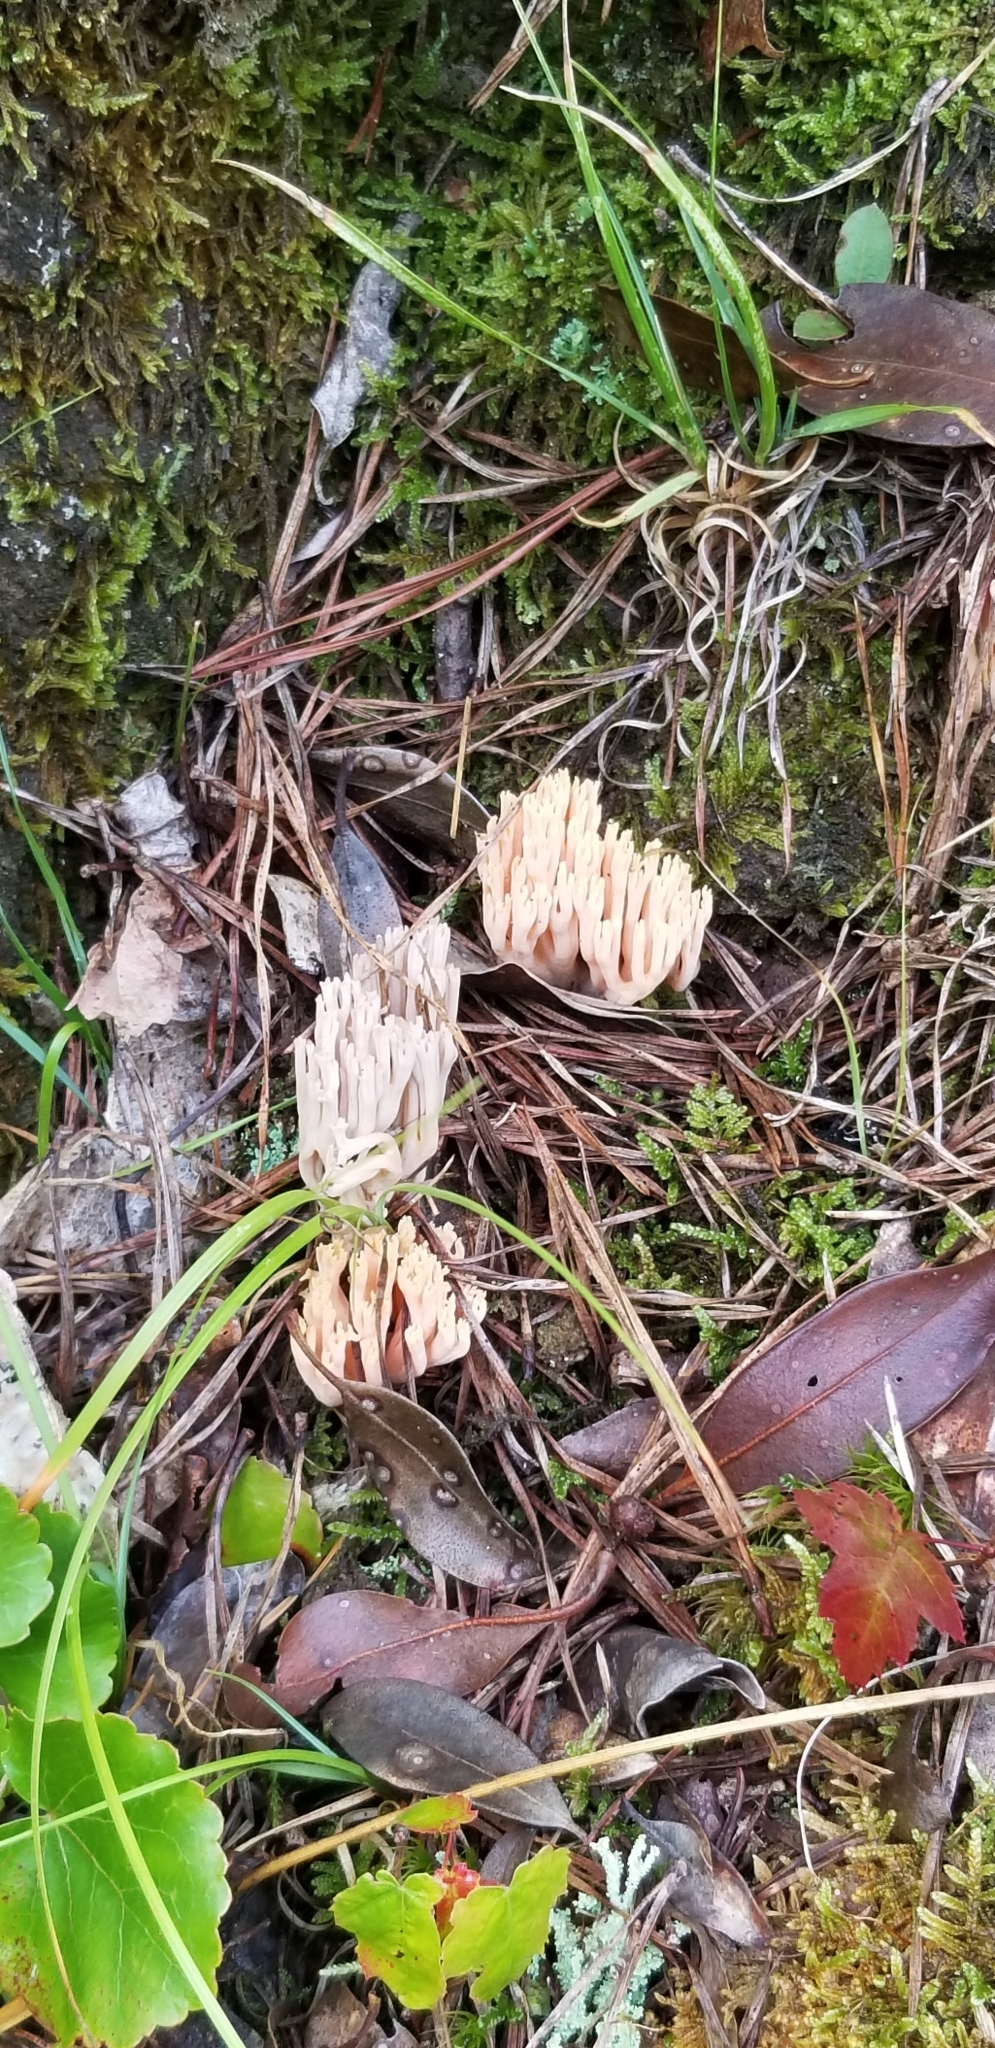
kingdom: Fungi
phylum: Basidiomycota
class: Agaricomycetes
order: Gomphales
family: Gomphaceae
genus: Ramaria
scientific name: Ramaria stricta
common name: Upright coral
